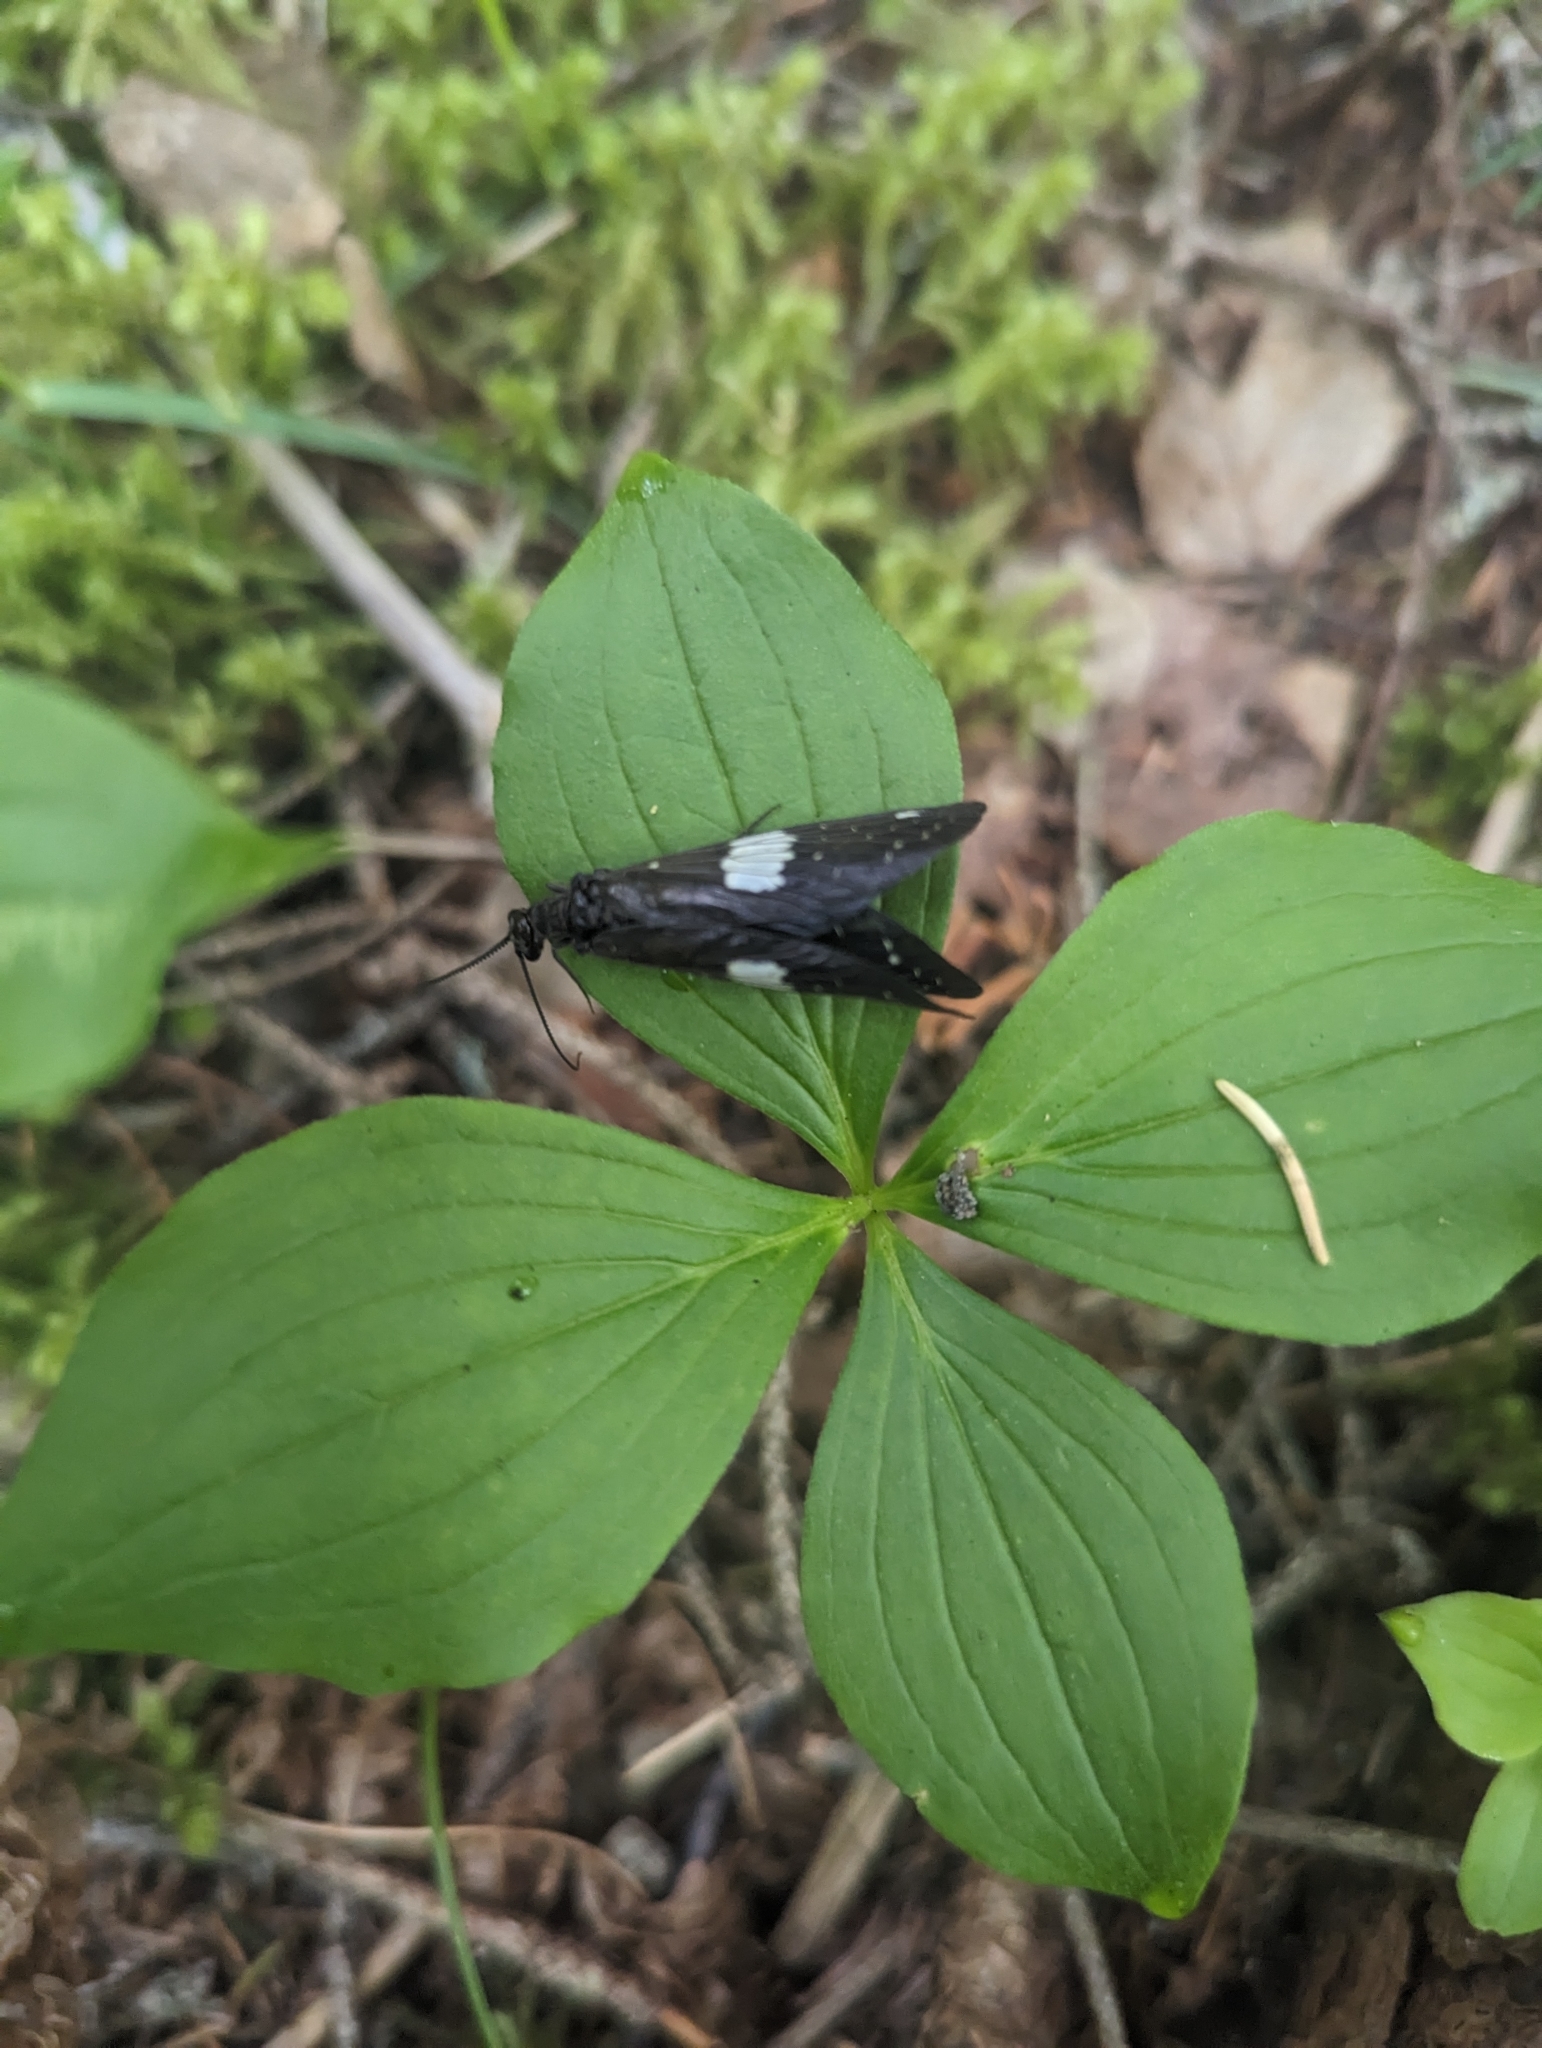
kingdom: Animalia
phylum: Arthropoda
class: Insecta
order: Megaloptera
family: Corydalidae
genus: Nigronia
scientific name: Nigronia serricornis
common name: Serrate dark fishfly
